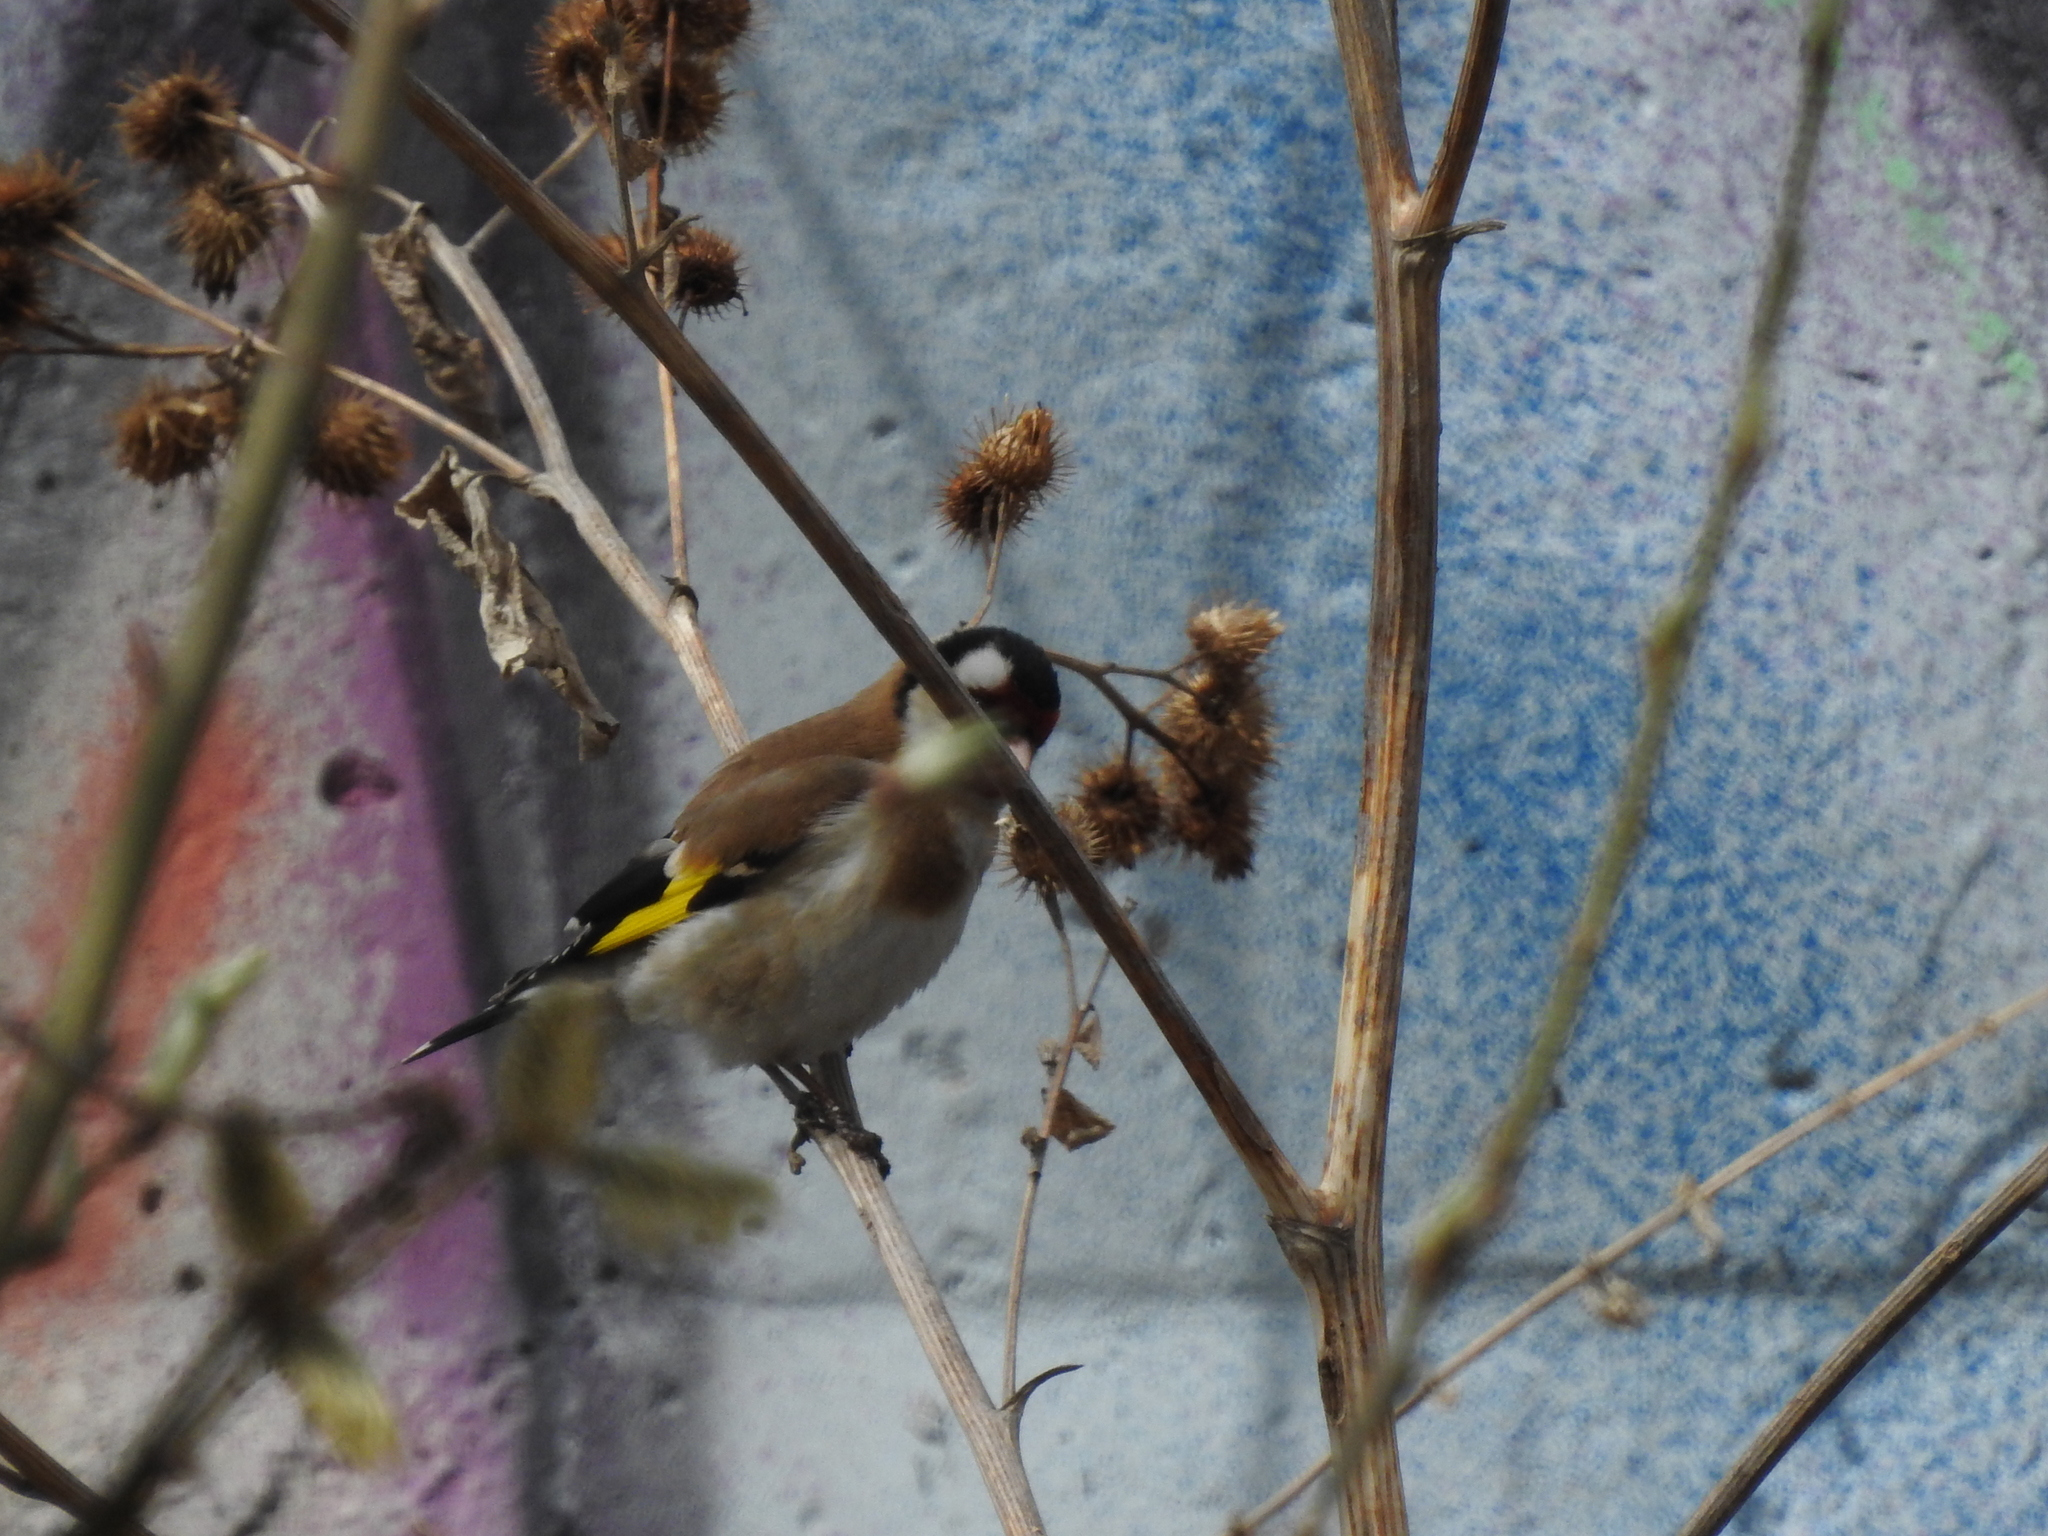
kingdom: Animalia
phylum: Chordata
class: Aves
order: Passeriformes
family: Fringillidae
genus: Carduelis
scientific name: Carduelis carduelis
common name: European goldfinch
